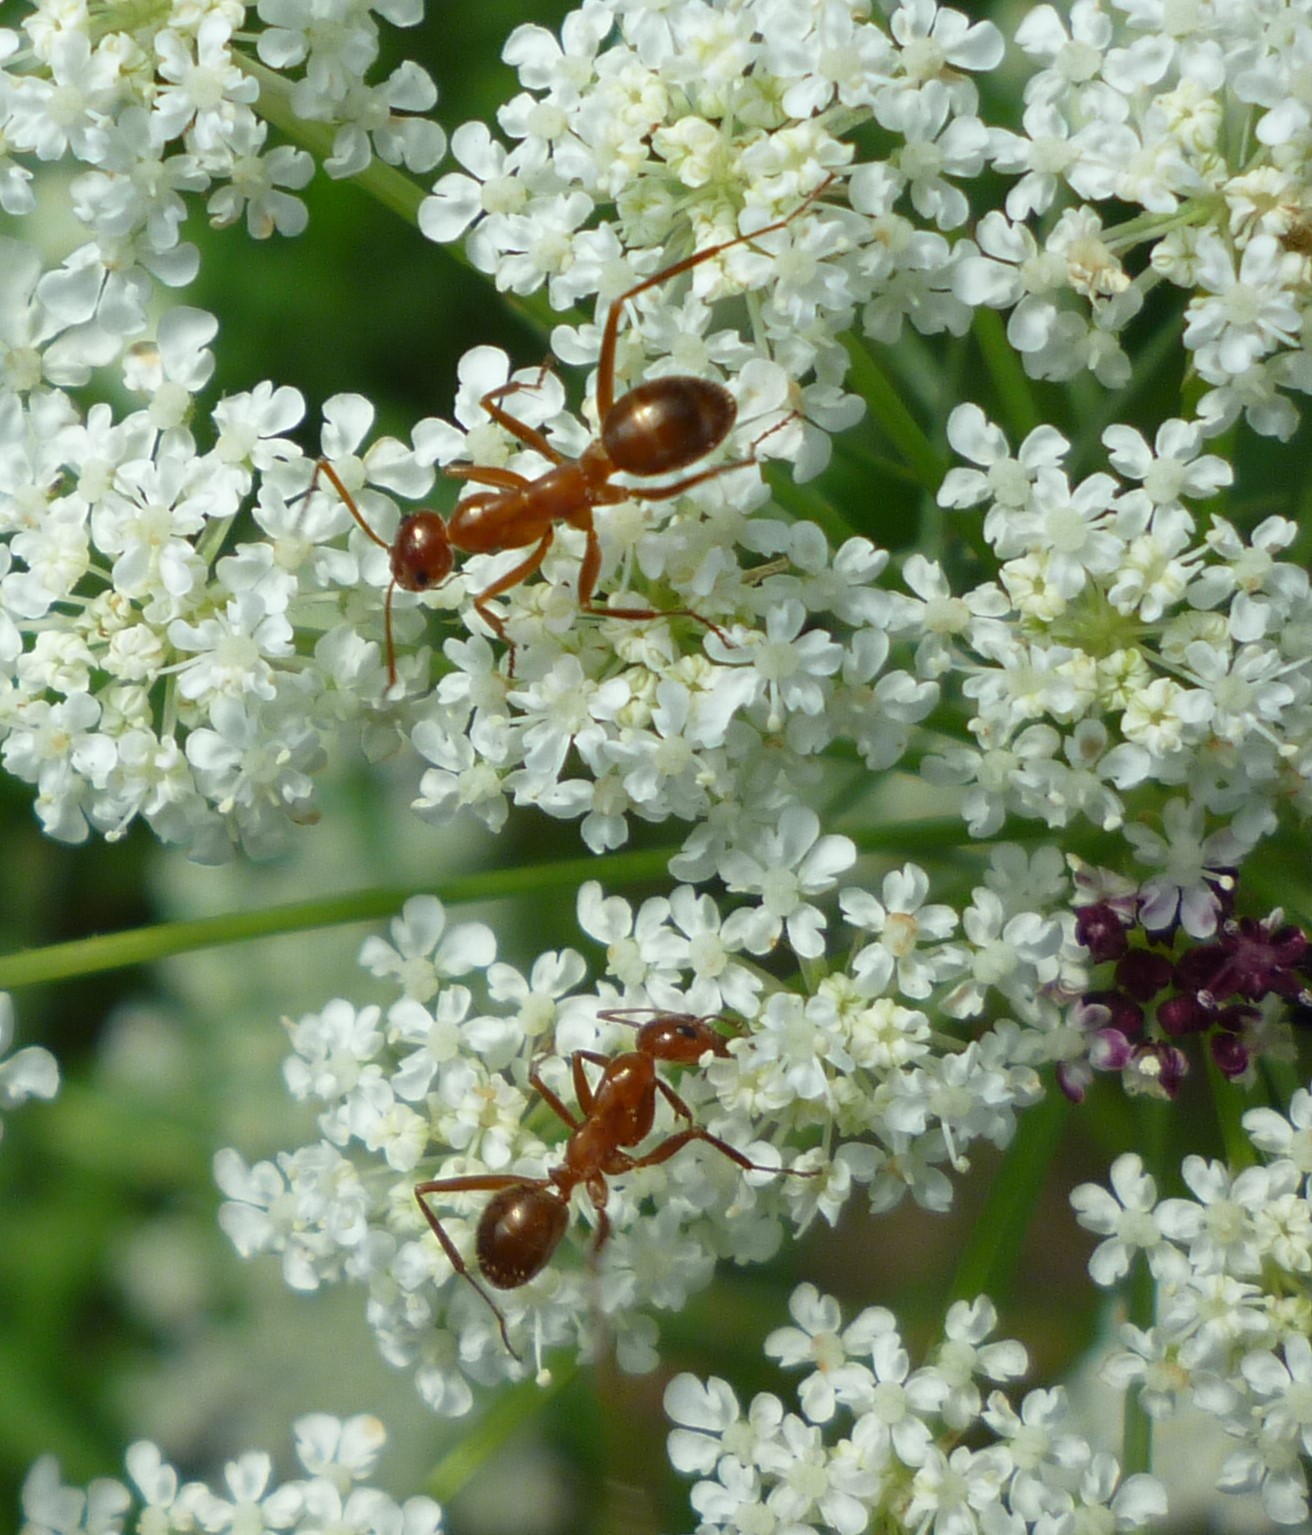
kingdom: Animalia
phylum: Arthropoda
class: Insecta
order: Hymenoptera
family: Formicidae
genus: Formica
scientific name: Formica
